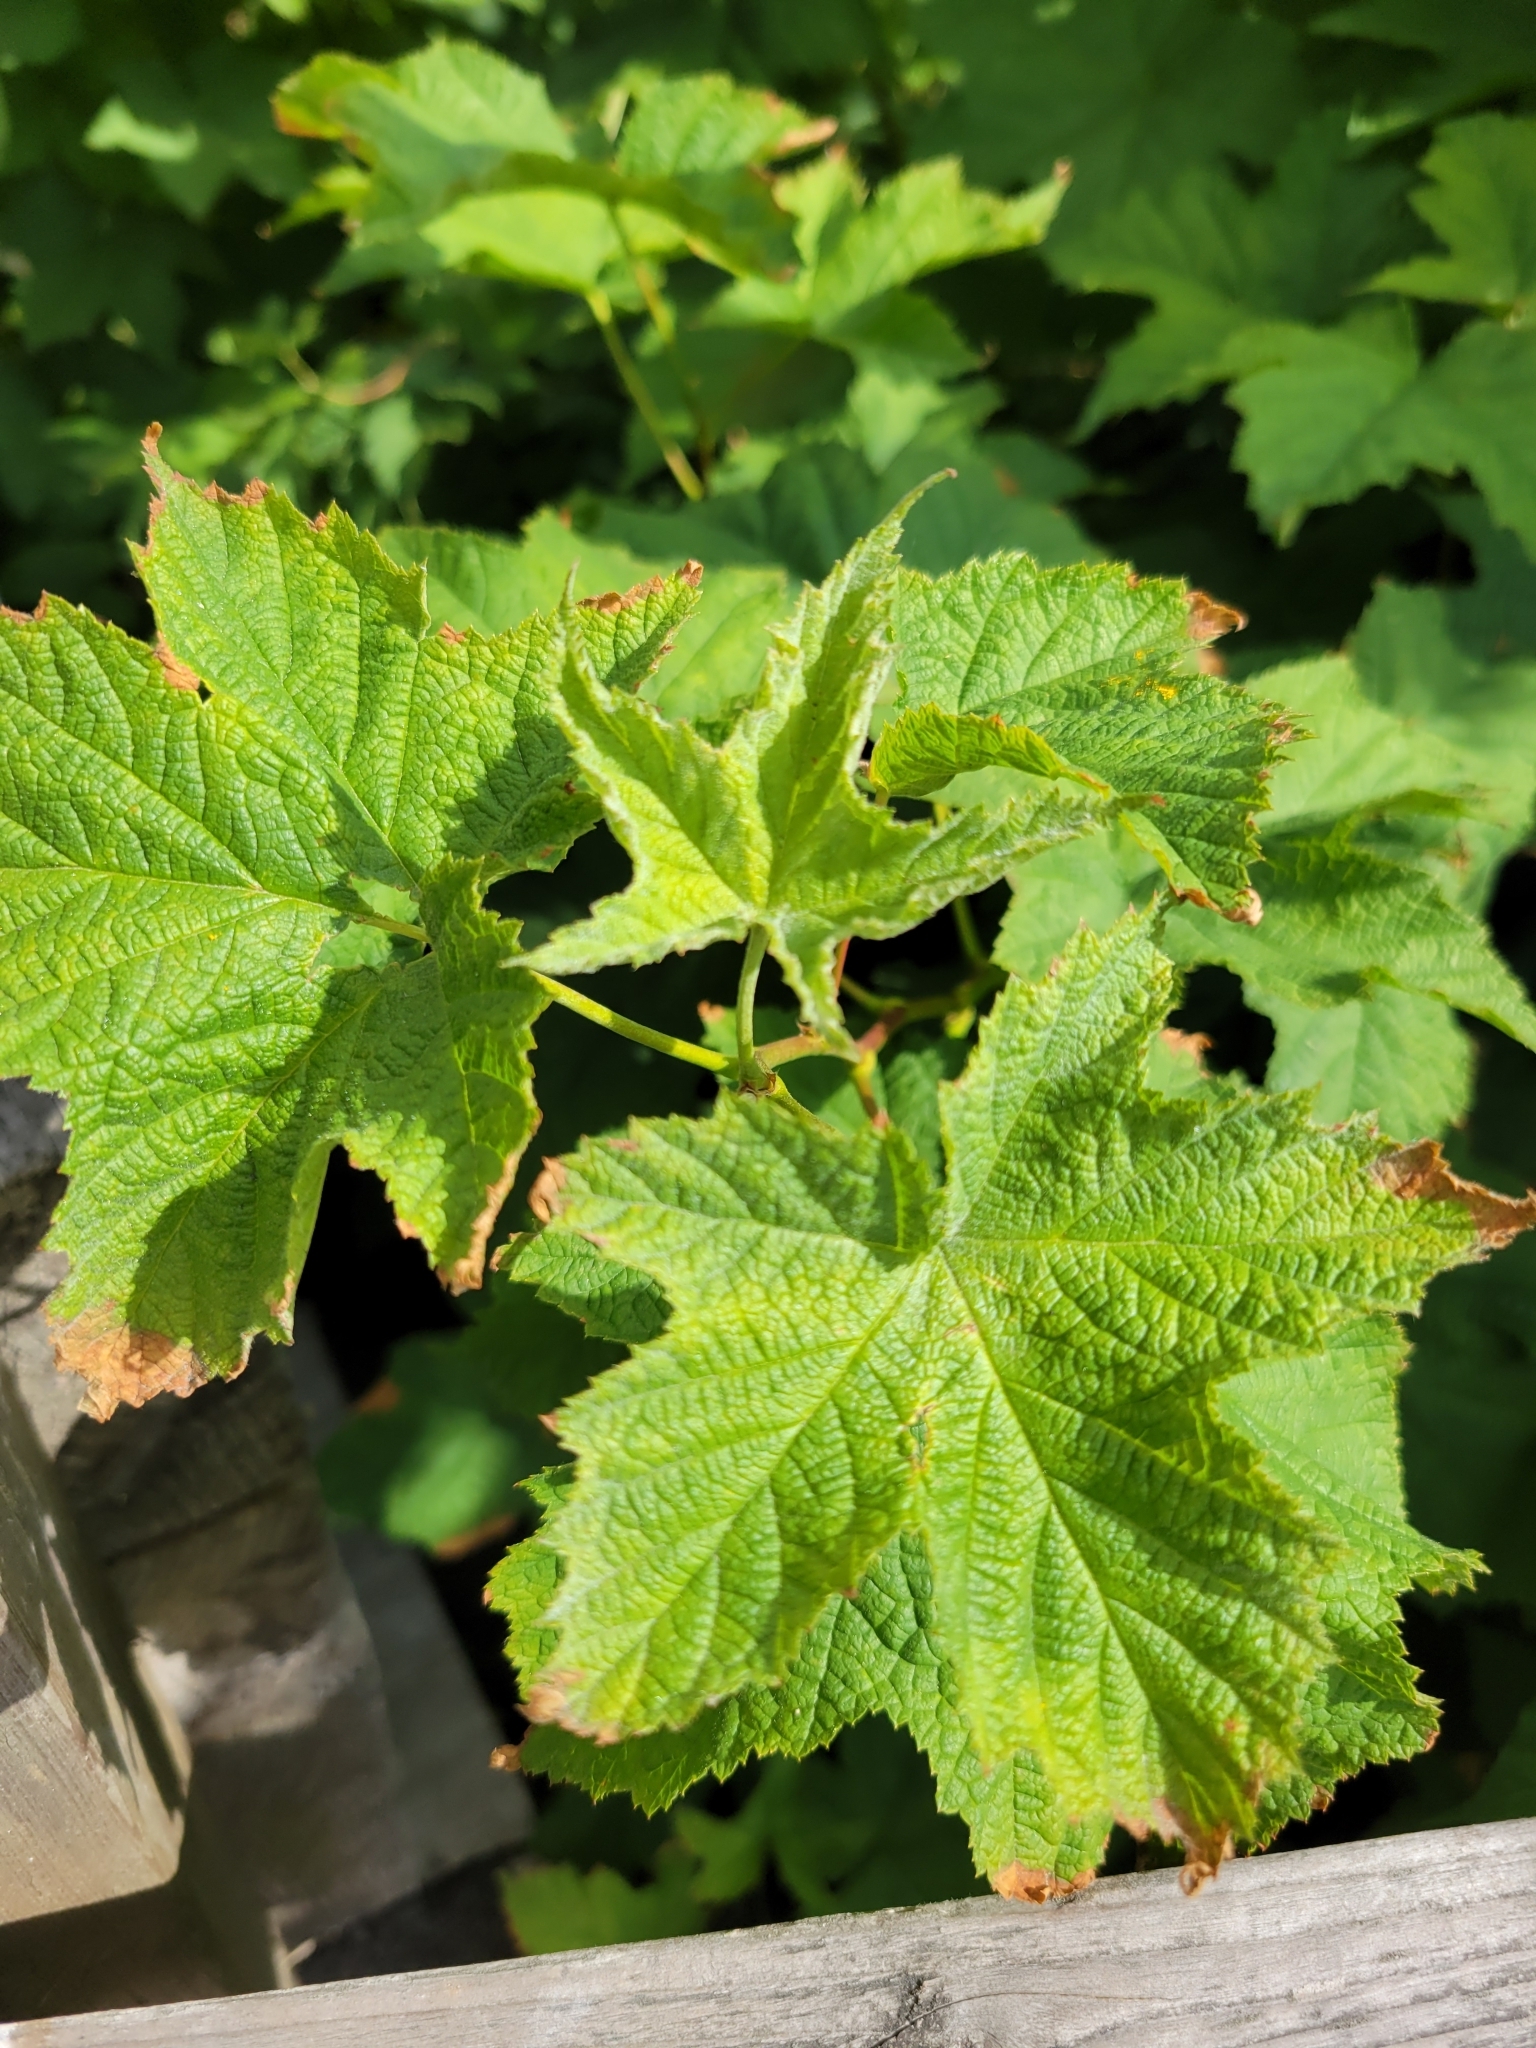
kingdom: Plantae
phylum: Tracheophyta
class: Magnoliopsida
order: Rosales
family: Rosaceae
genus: Rubus
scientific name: Rubus parviflorus
